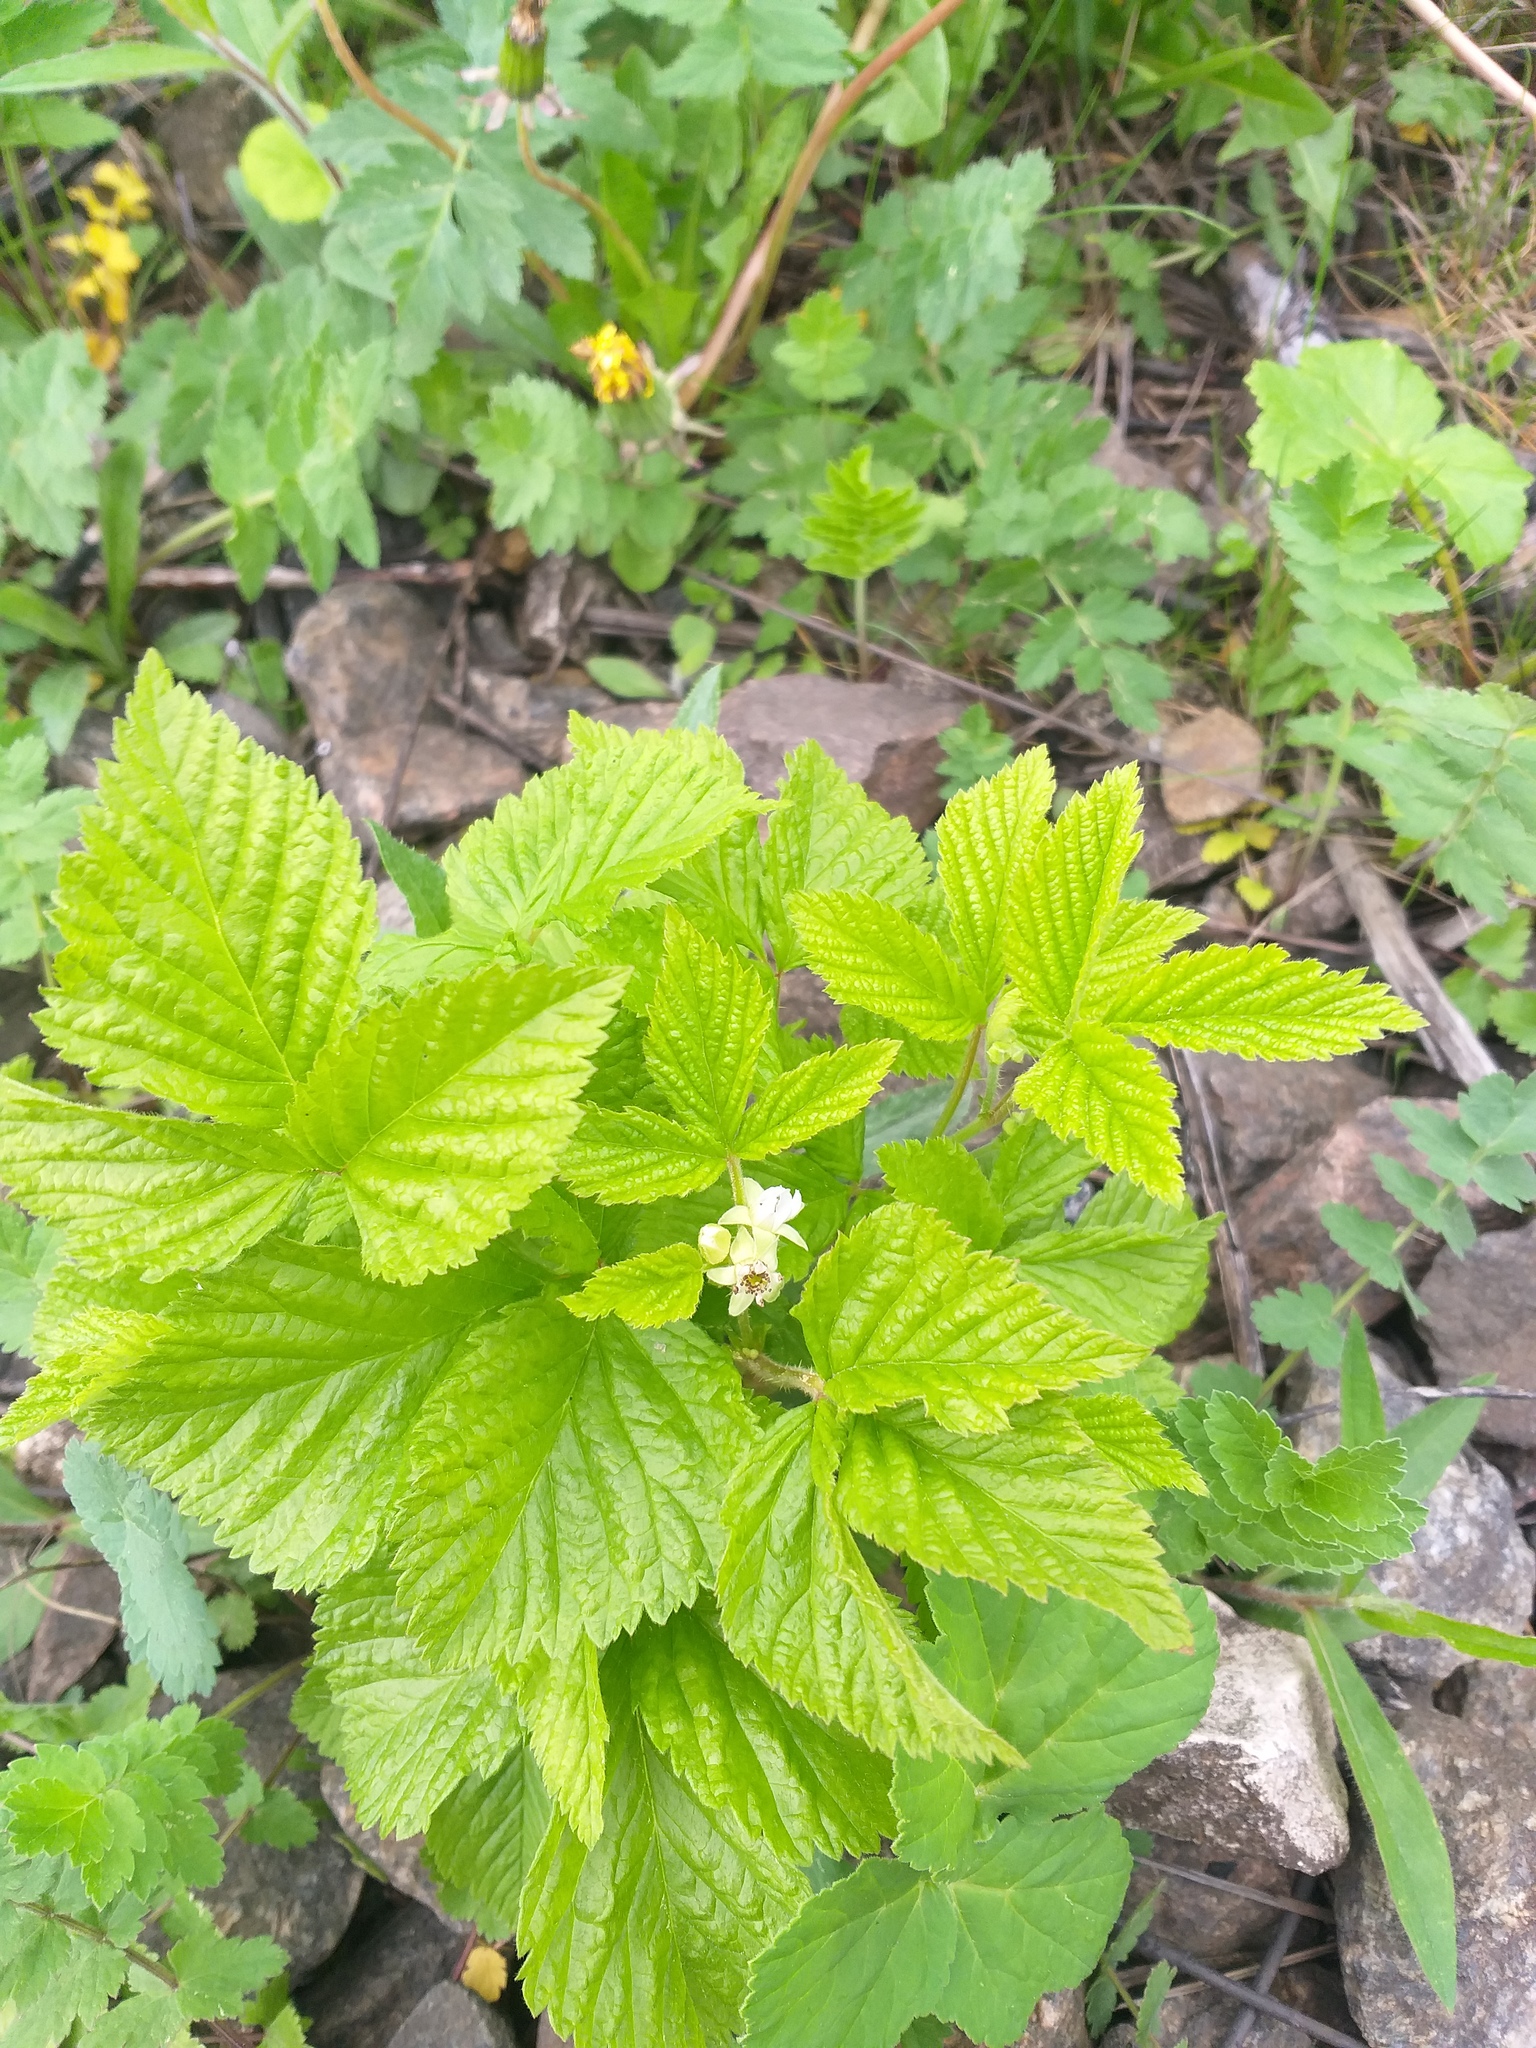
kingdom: Plantae
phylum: Tracheophyta
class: Magnoliopsida
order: Rosales
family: Rosaceae
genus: Rubus
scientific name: Rubus saxatilis
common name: Stone bramble
